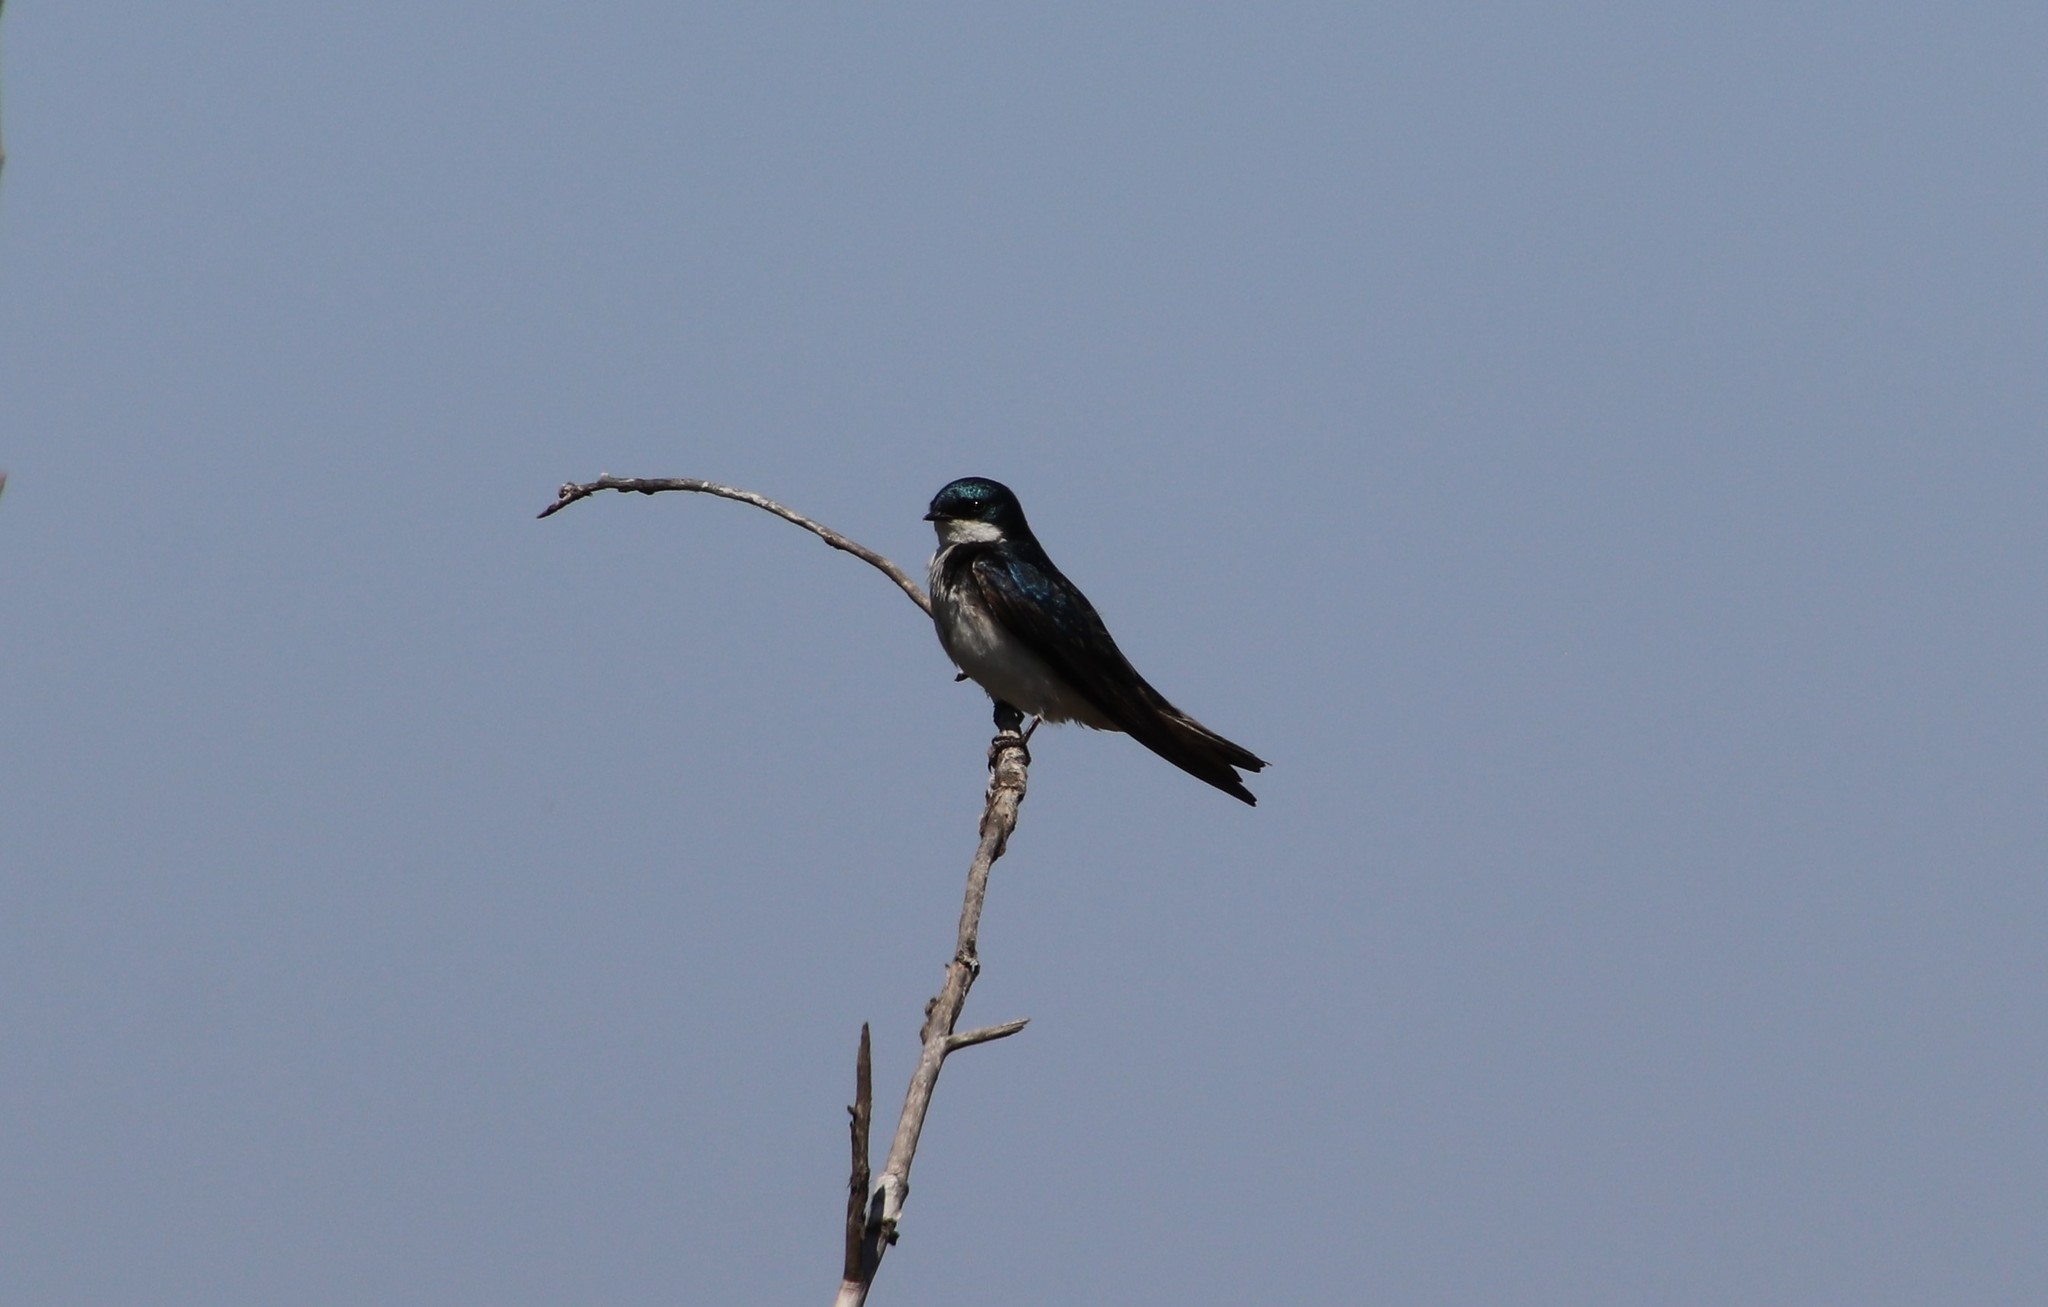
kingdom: Animalia
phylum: Chordata
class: Aves
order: Passeriformes
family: Hirundinidae
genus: Tachycineta
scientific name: Tachycineta bicolor
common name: Tree swallow
